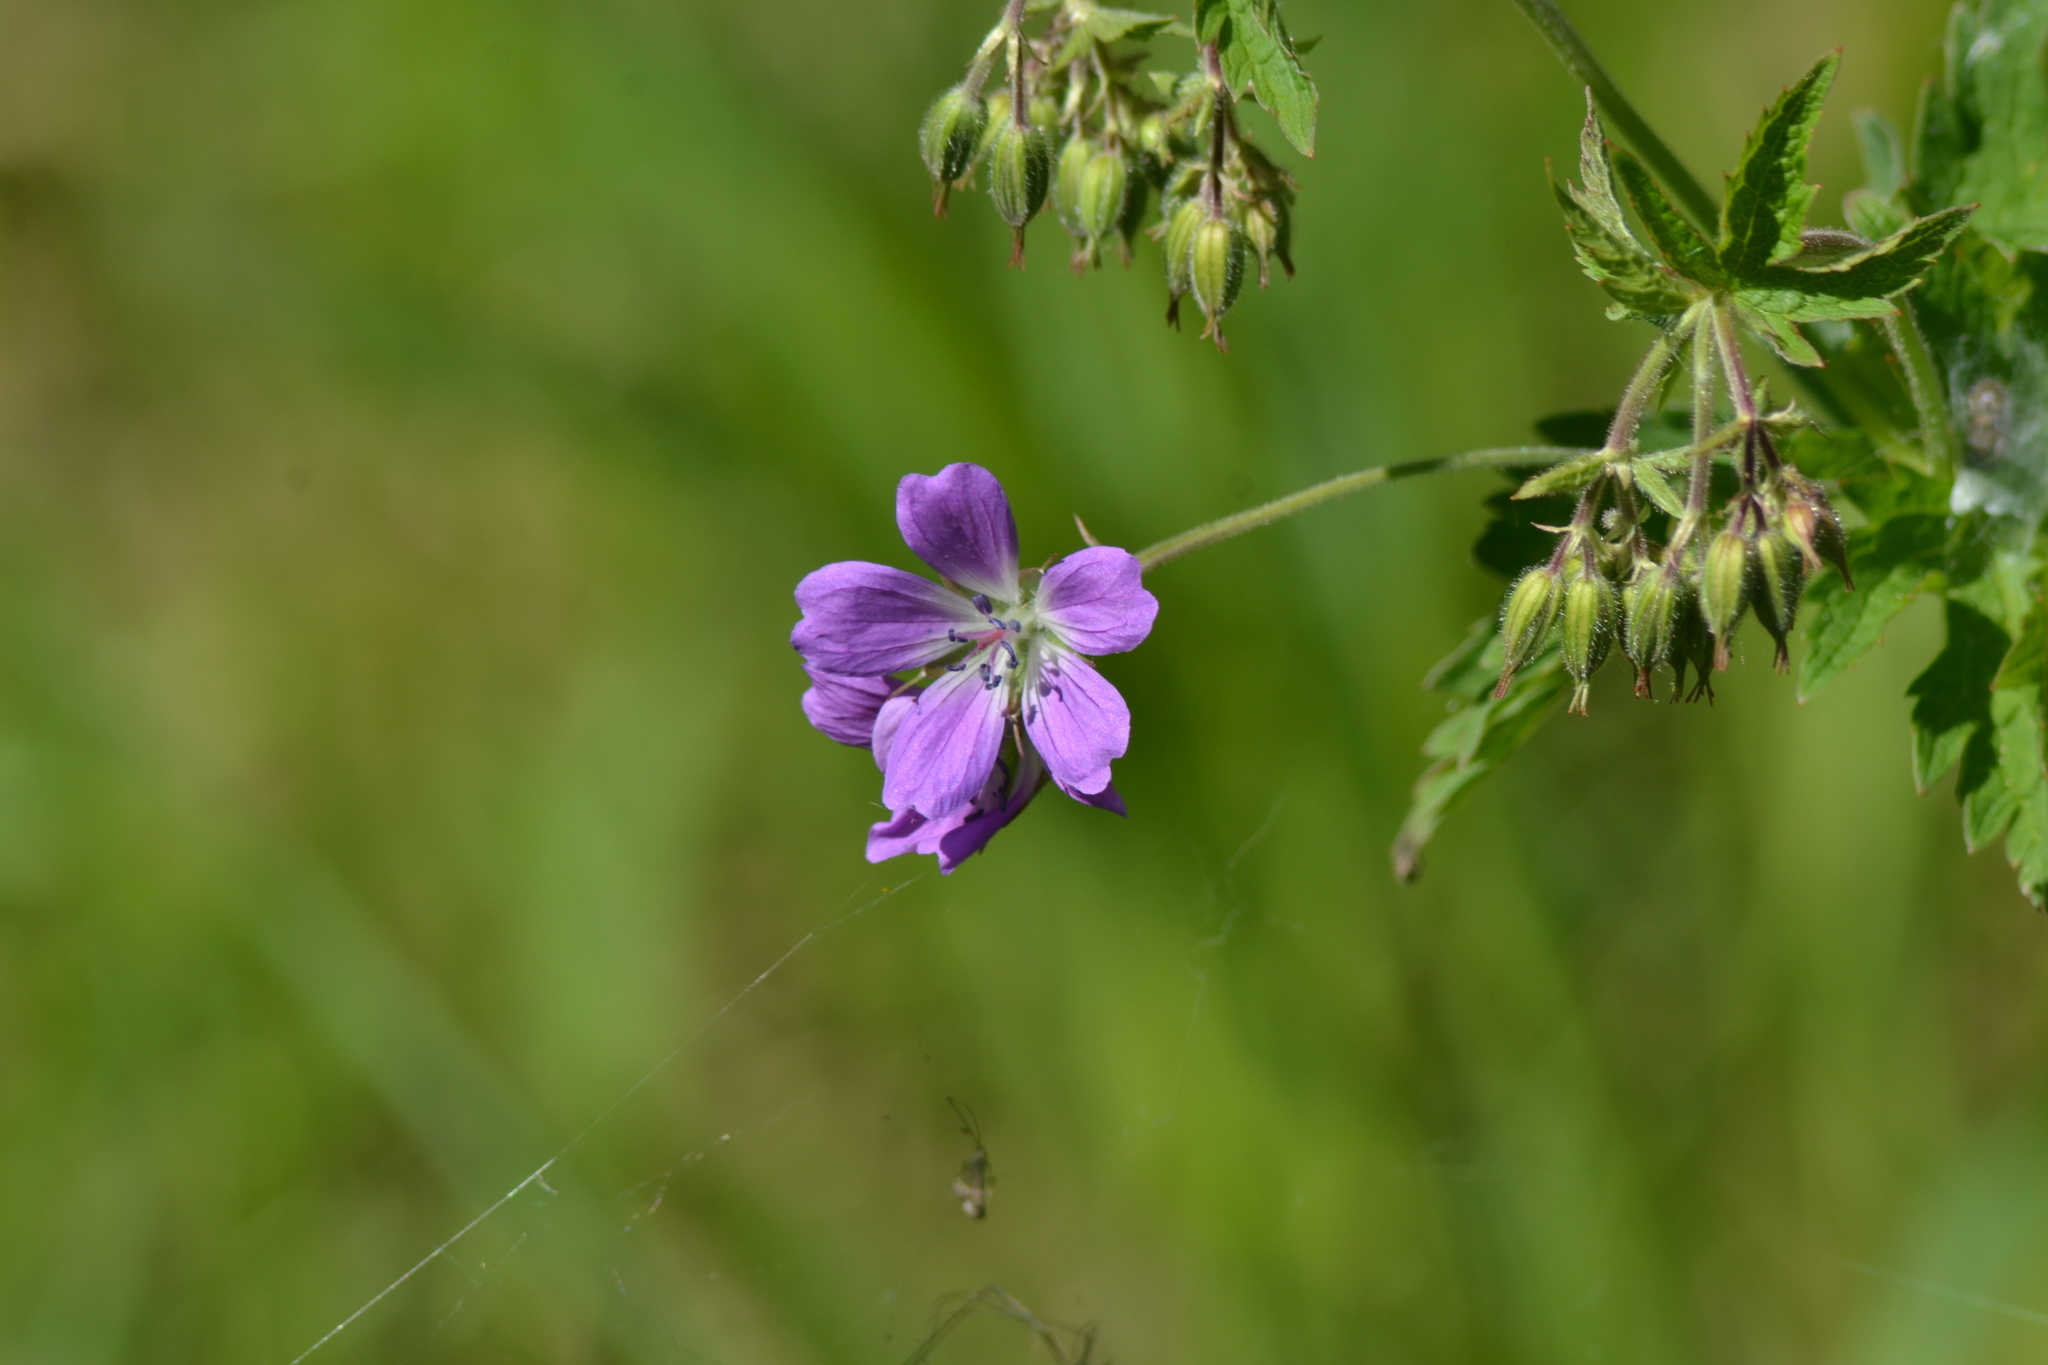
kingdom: Plantae
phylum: Tracheophyta
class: Magnoliopsida
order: Geraniales
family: Geraniaceae
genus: Geranium
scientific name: Geranium sylvaticum
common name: Wood crane's-bill
